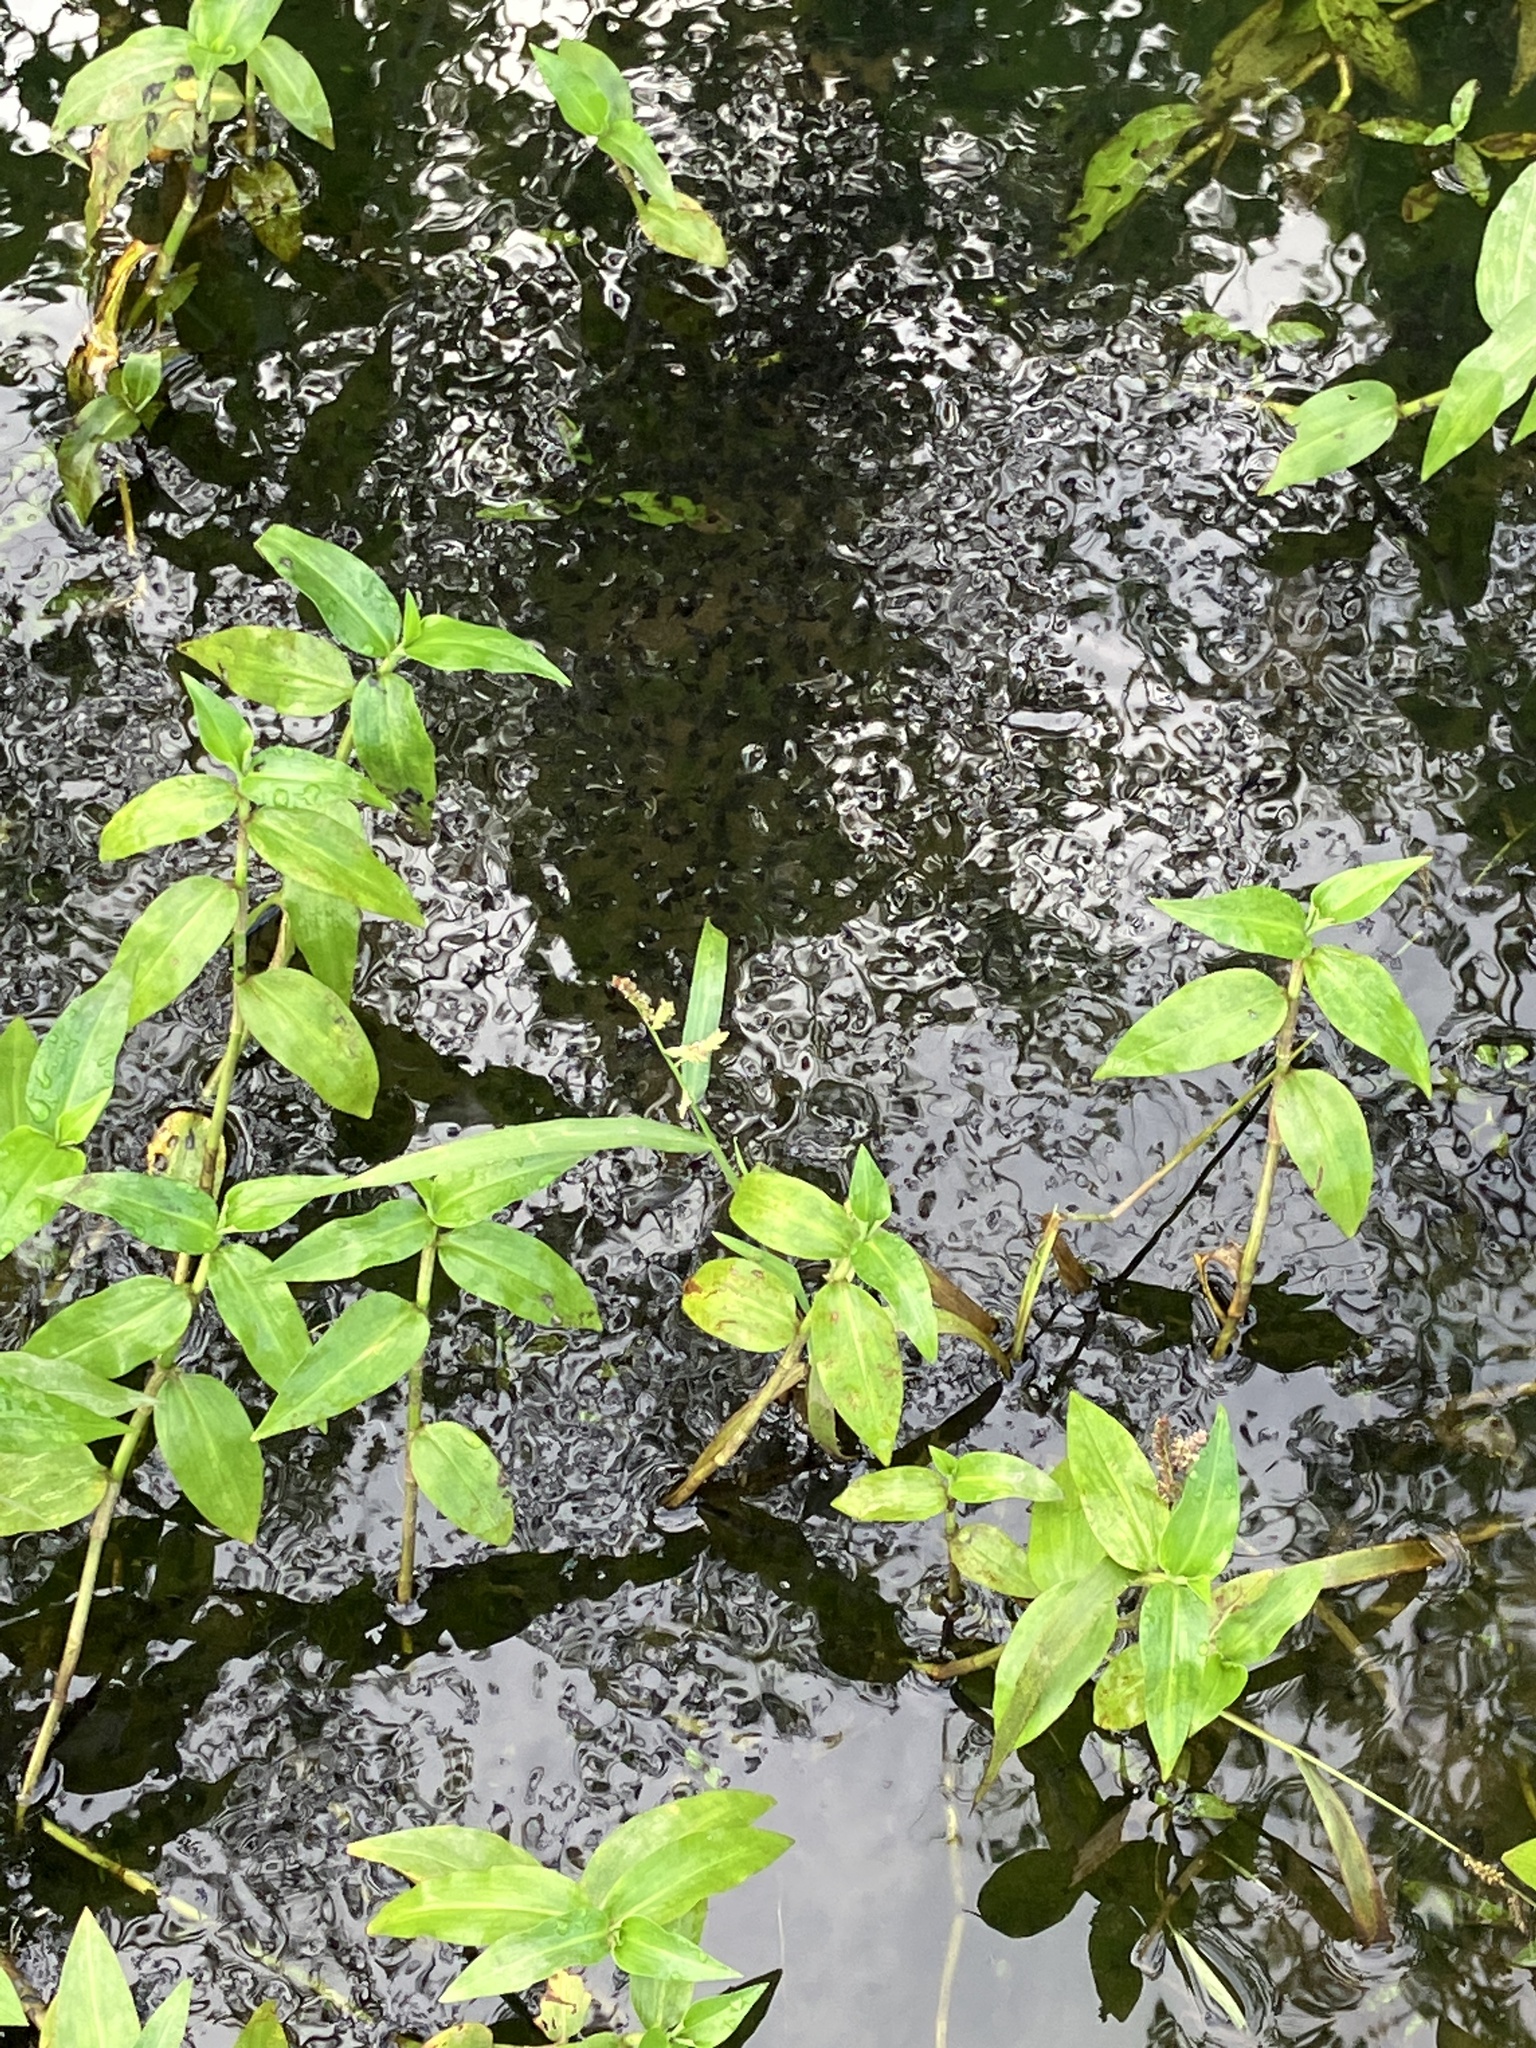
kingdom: Animalia
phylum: Chordata
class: Amphibia
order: Anura
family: Bufonidae
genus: Rhinella
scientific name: Rhinella marina
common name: Cane toad
